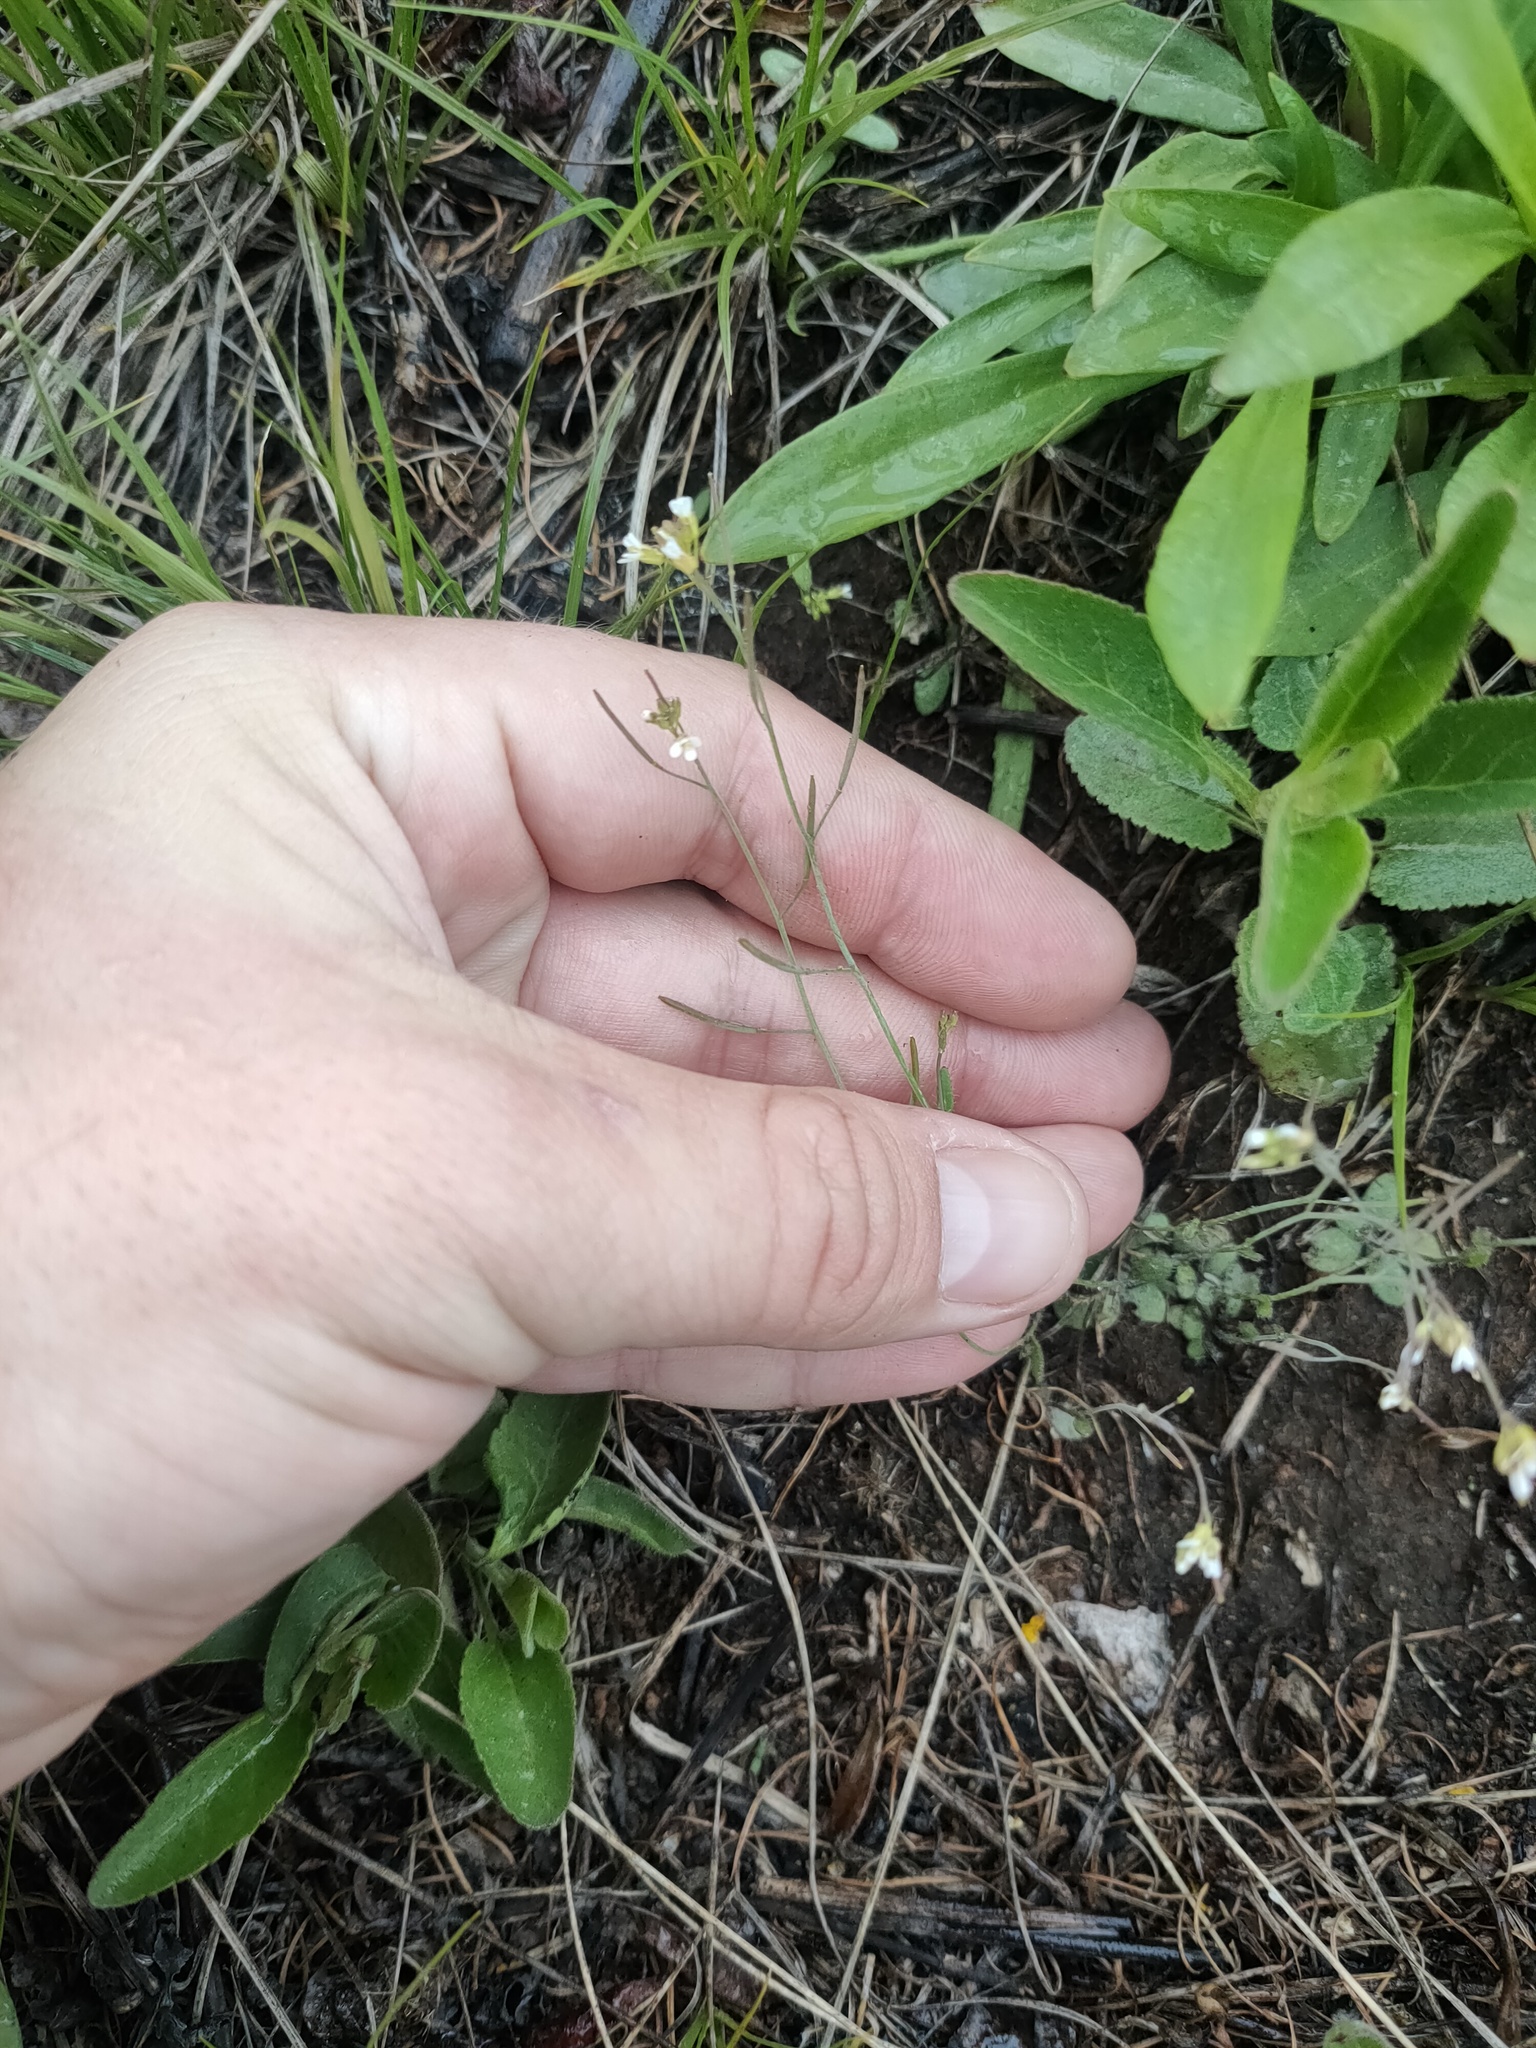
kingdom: Plantae
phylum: Tracheophyta
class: Magnoliopsida
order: Brassicales
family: Brassicaceae
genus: Arabidopsis
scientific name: Arabidopsis thaliana
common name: Thale cress
